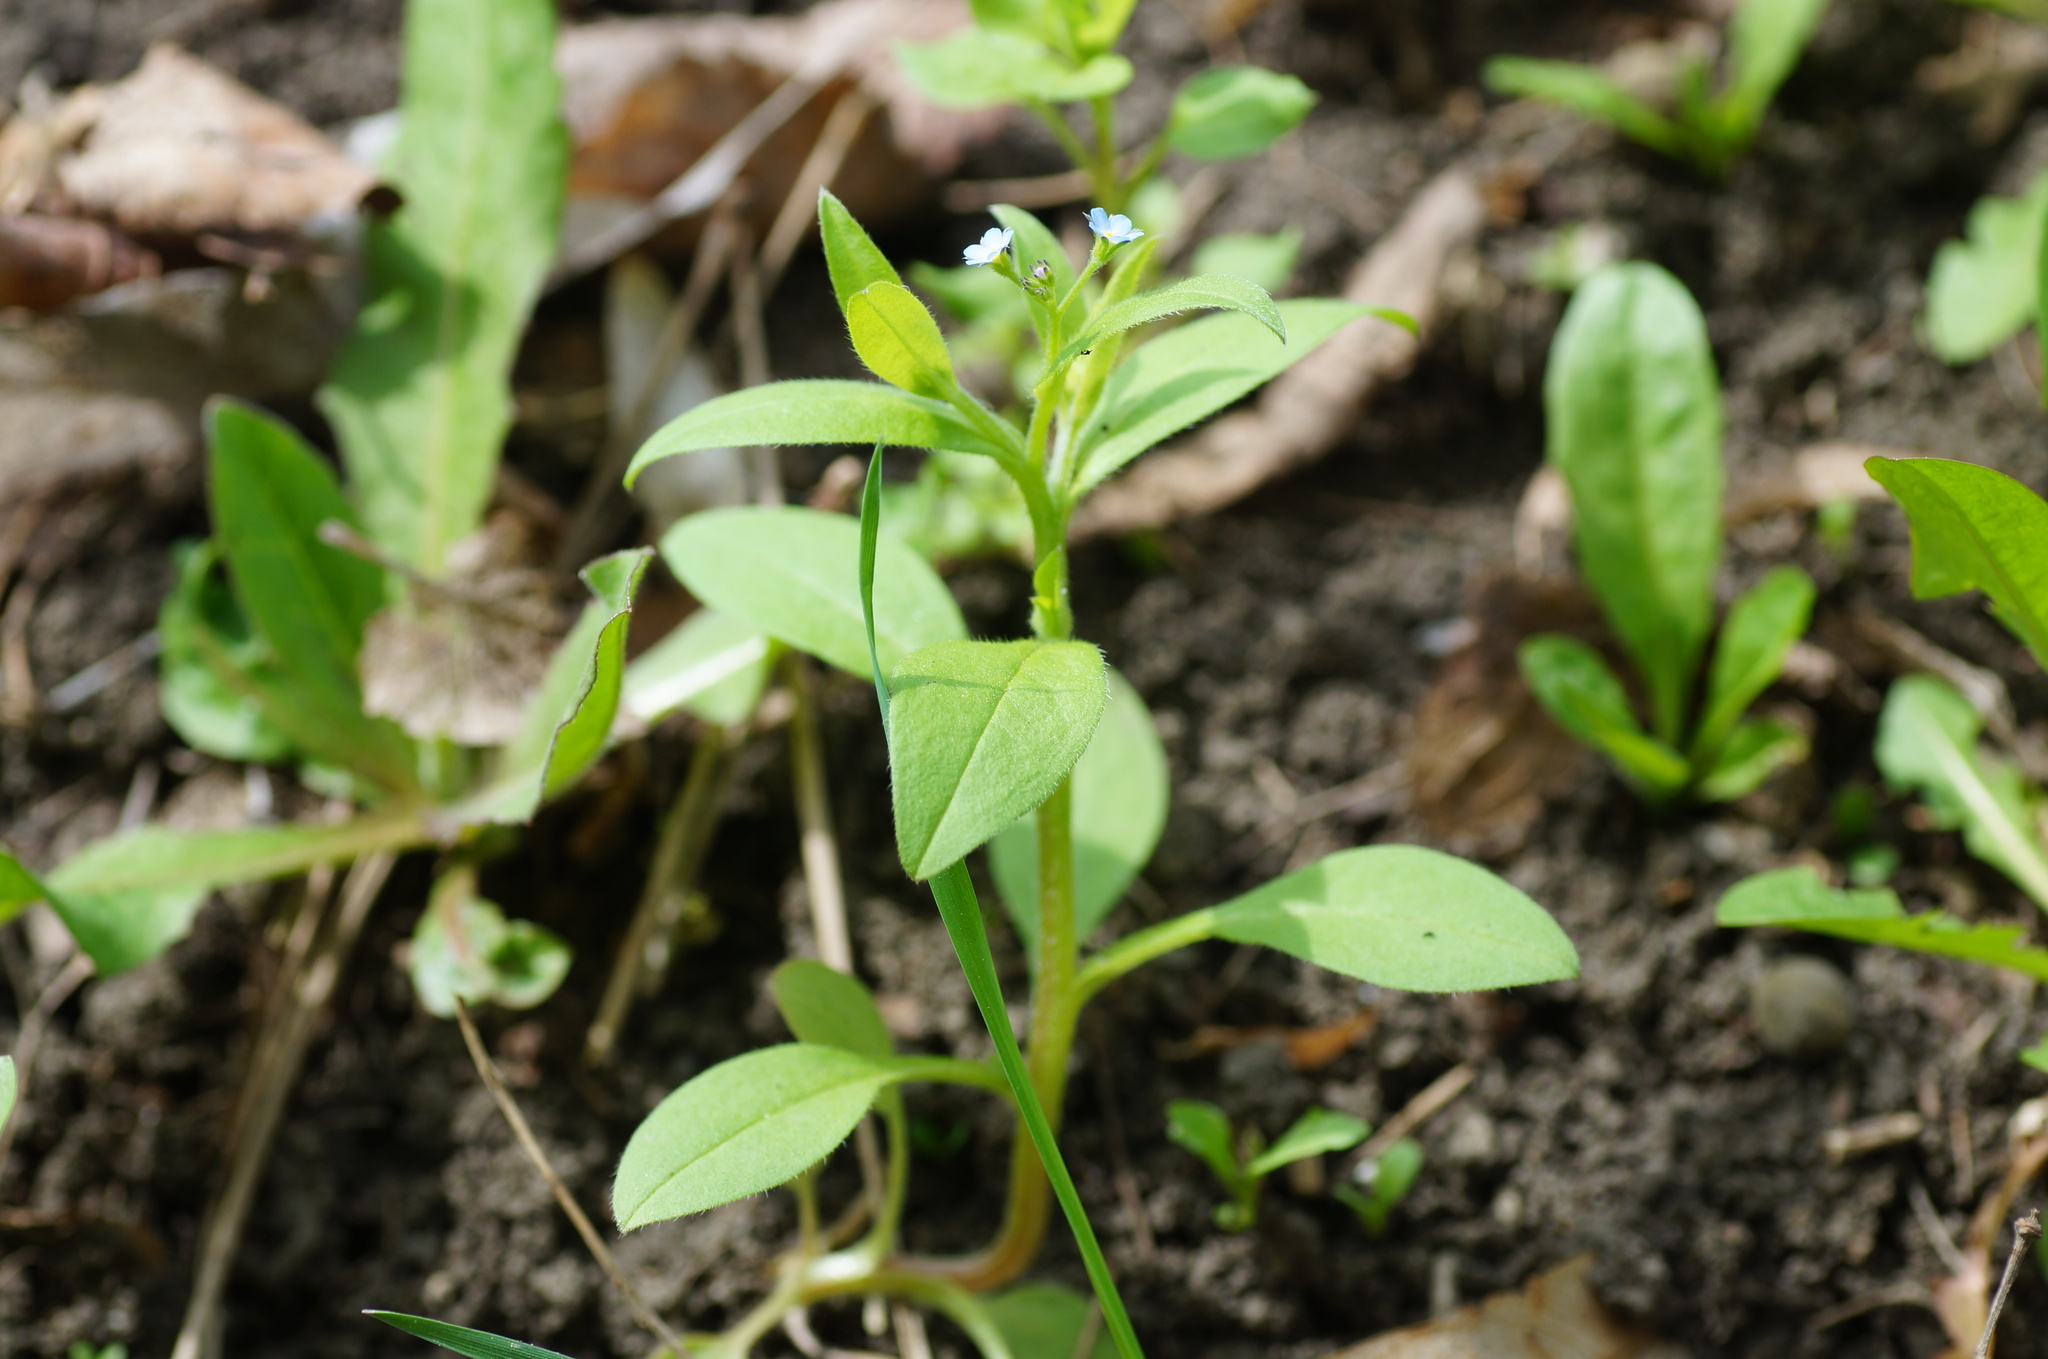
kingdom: Plantae
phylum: Tracheophyta
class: Magnoliopsida
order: Boraginales
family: Boraginaceae
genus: Myosotis
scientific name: Myosotis sparsiflora
